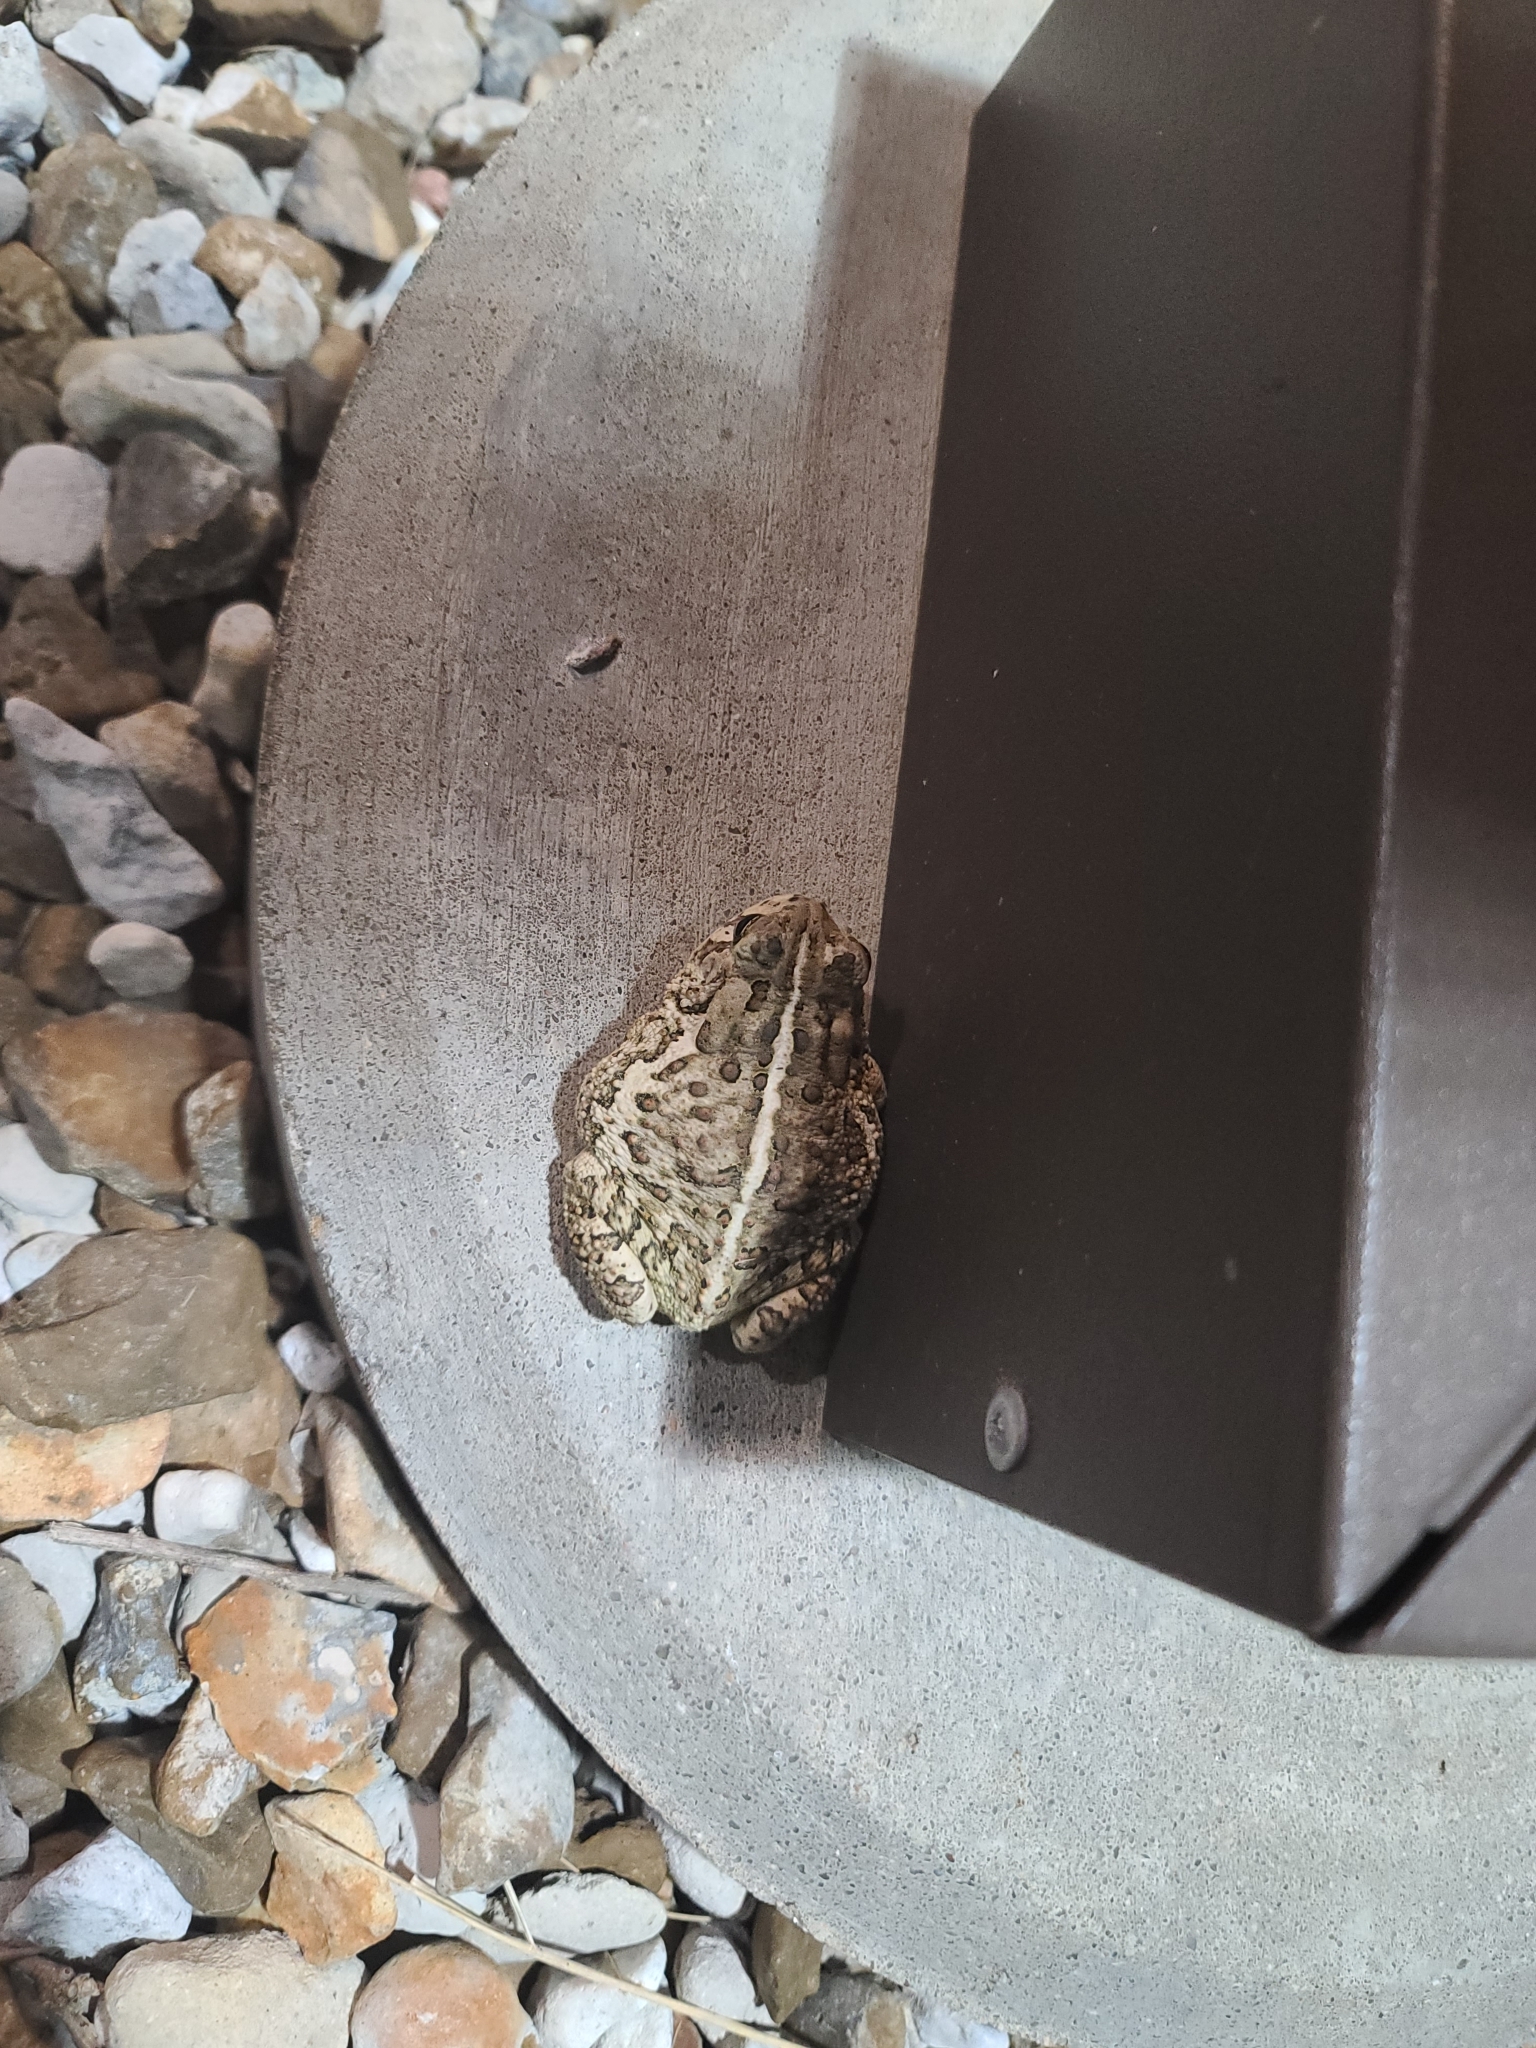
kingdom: Animalia
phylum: Chordata
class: Amphibia
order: Anura
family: Bufonidae
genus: Anaxyrus
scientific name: Anaxyrus woodhousii
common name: Woodhouse's toad
